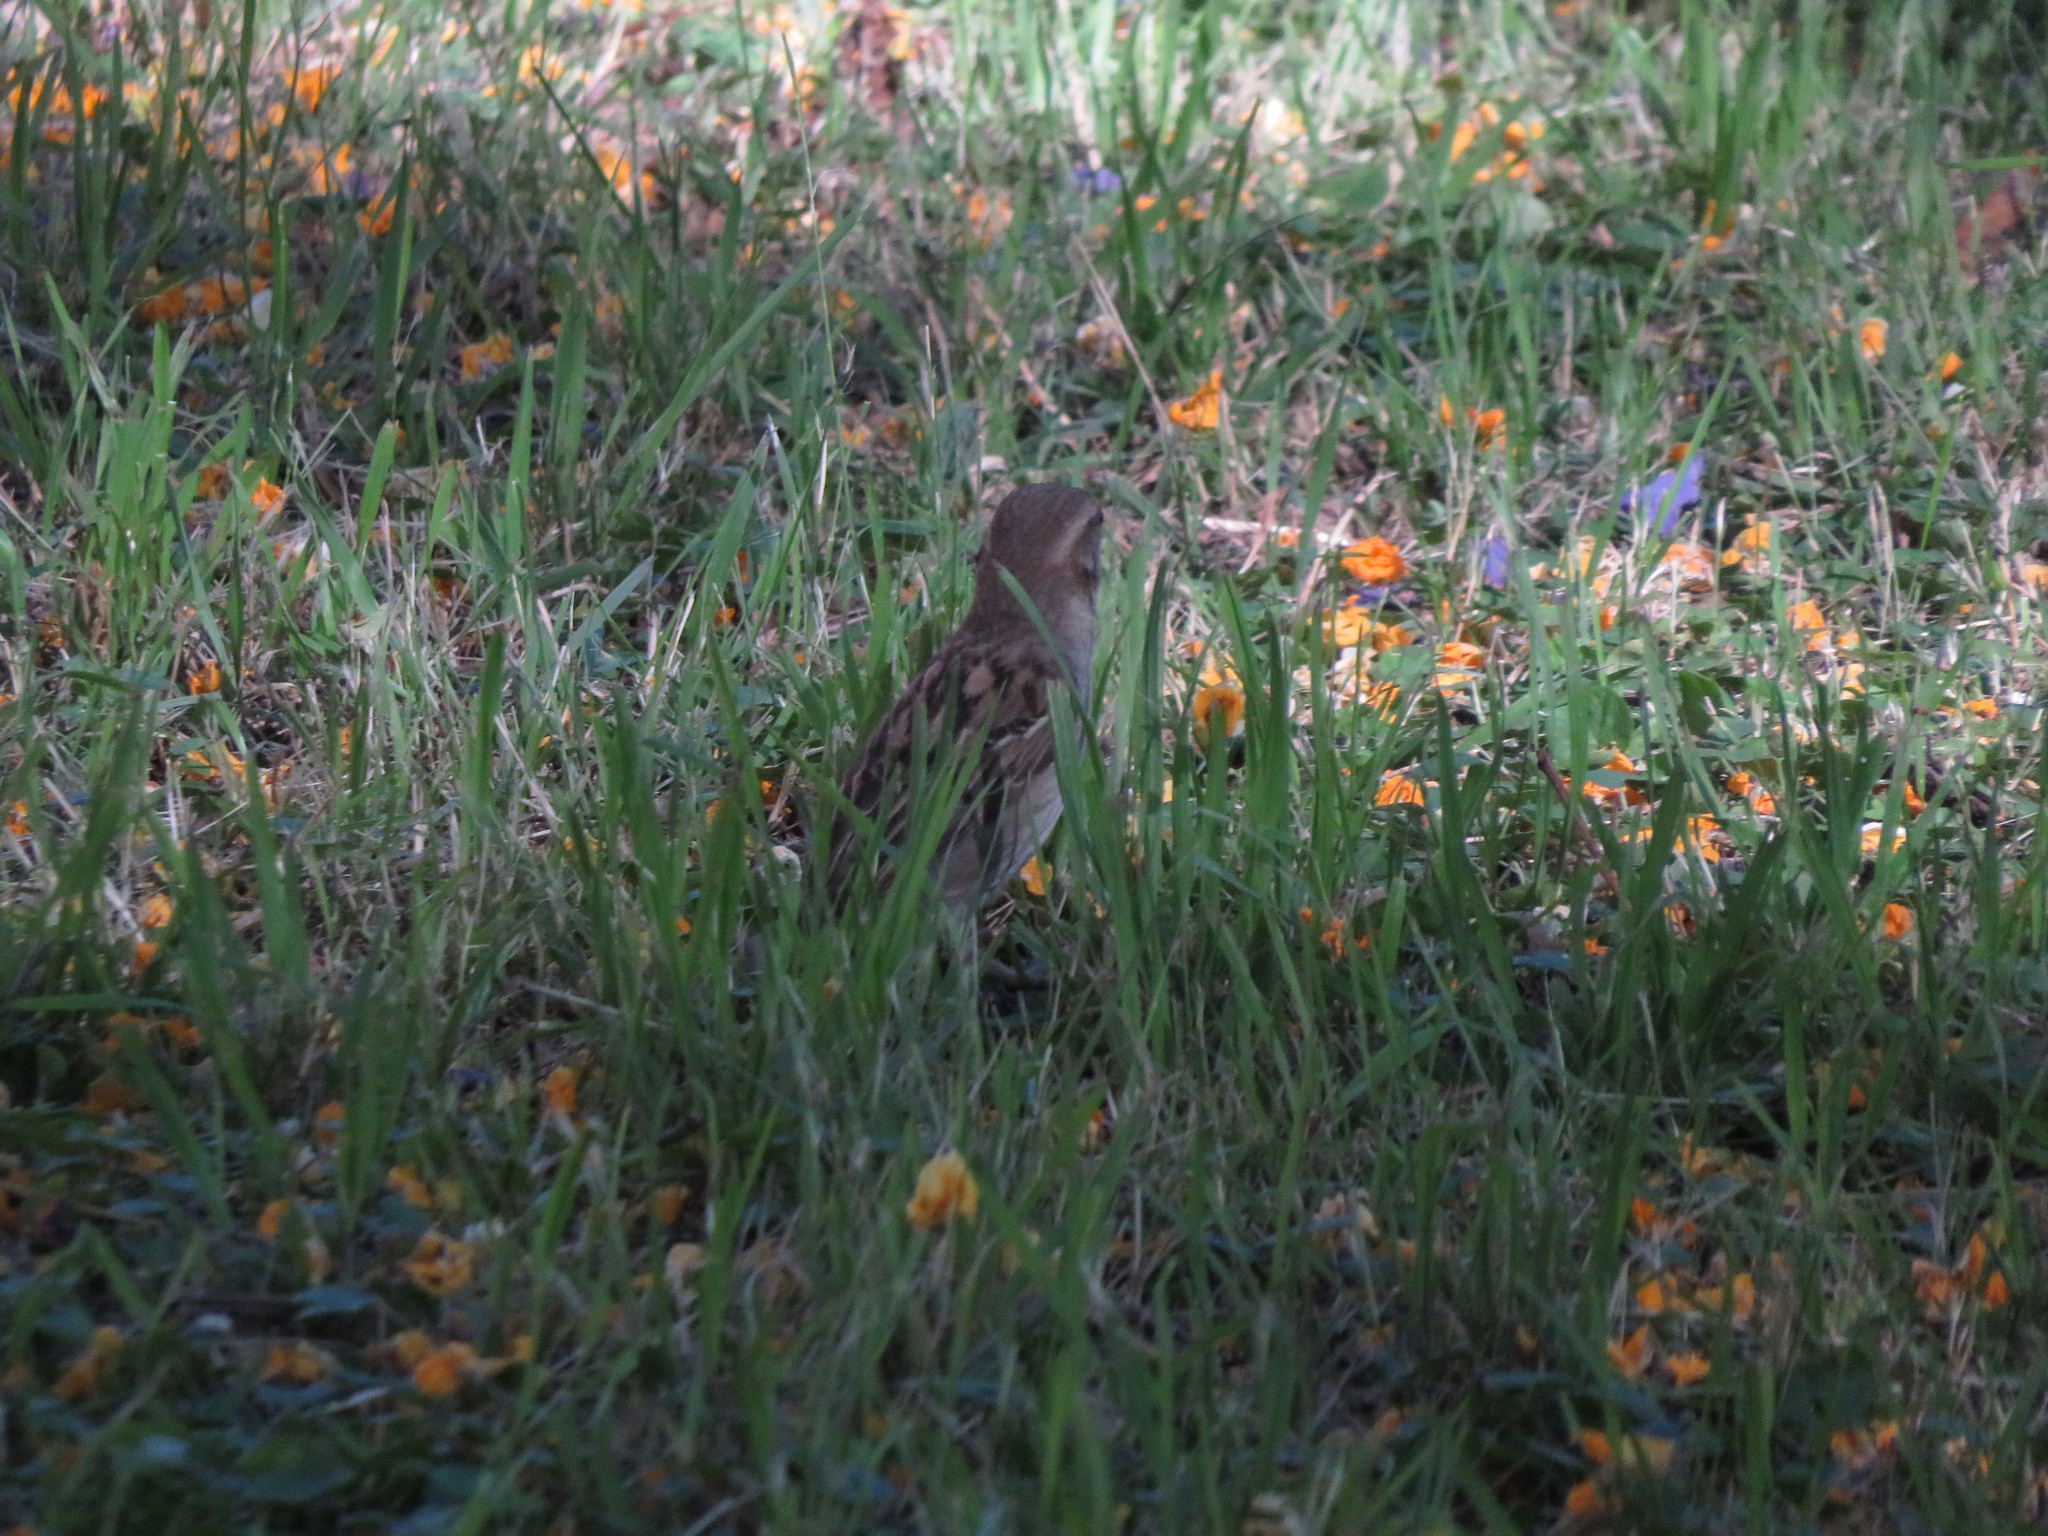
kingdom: Animalia
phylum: Chordata
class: Aves
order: Passeriformes
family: Passeridae
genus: Passer
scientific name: Passer domesticus
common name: House sparrow
